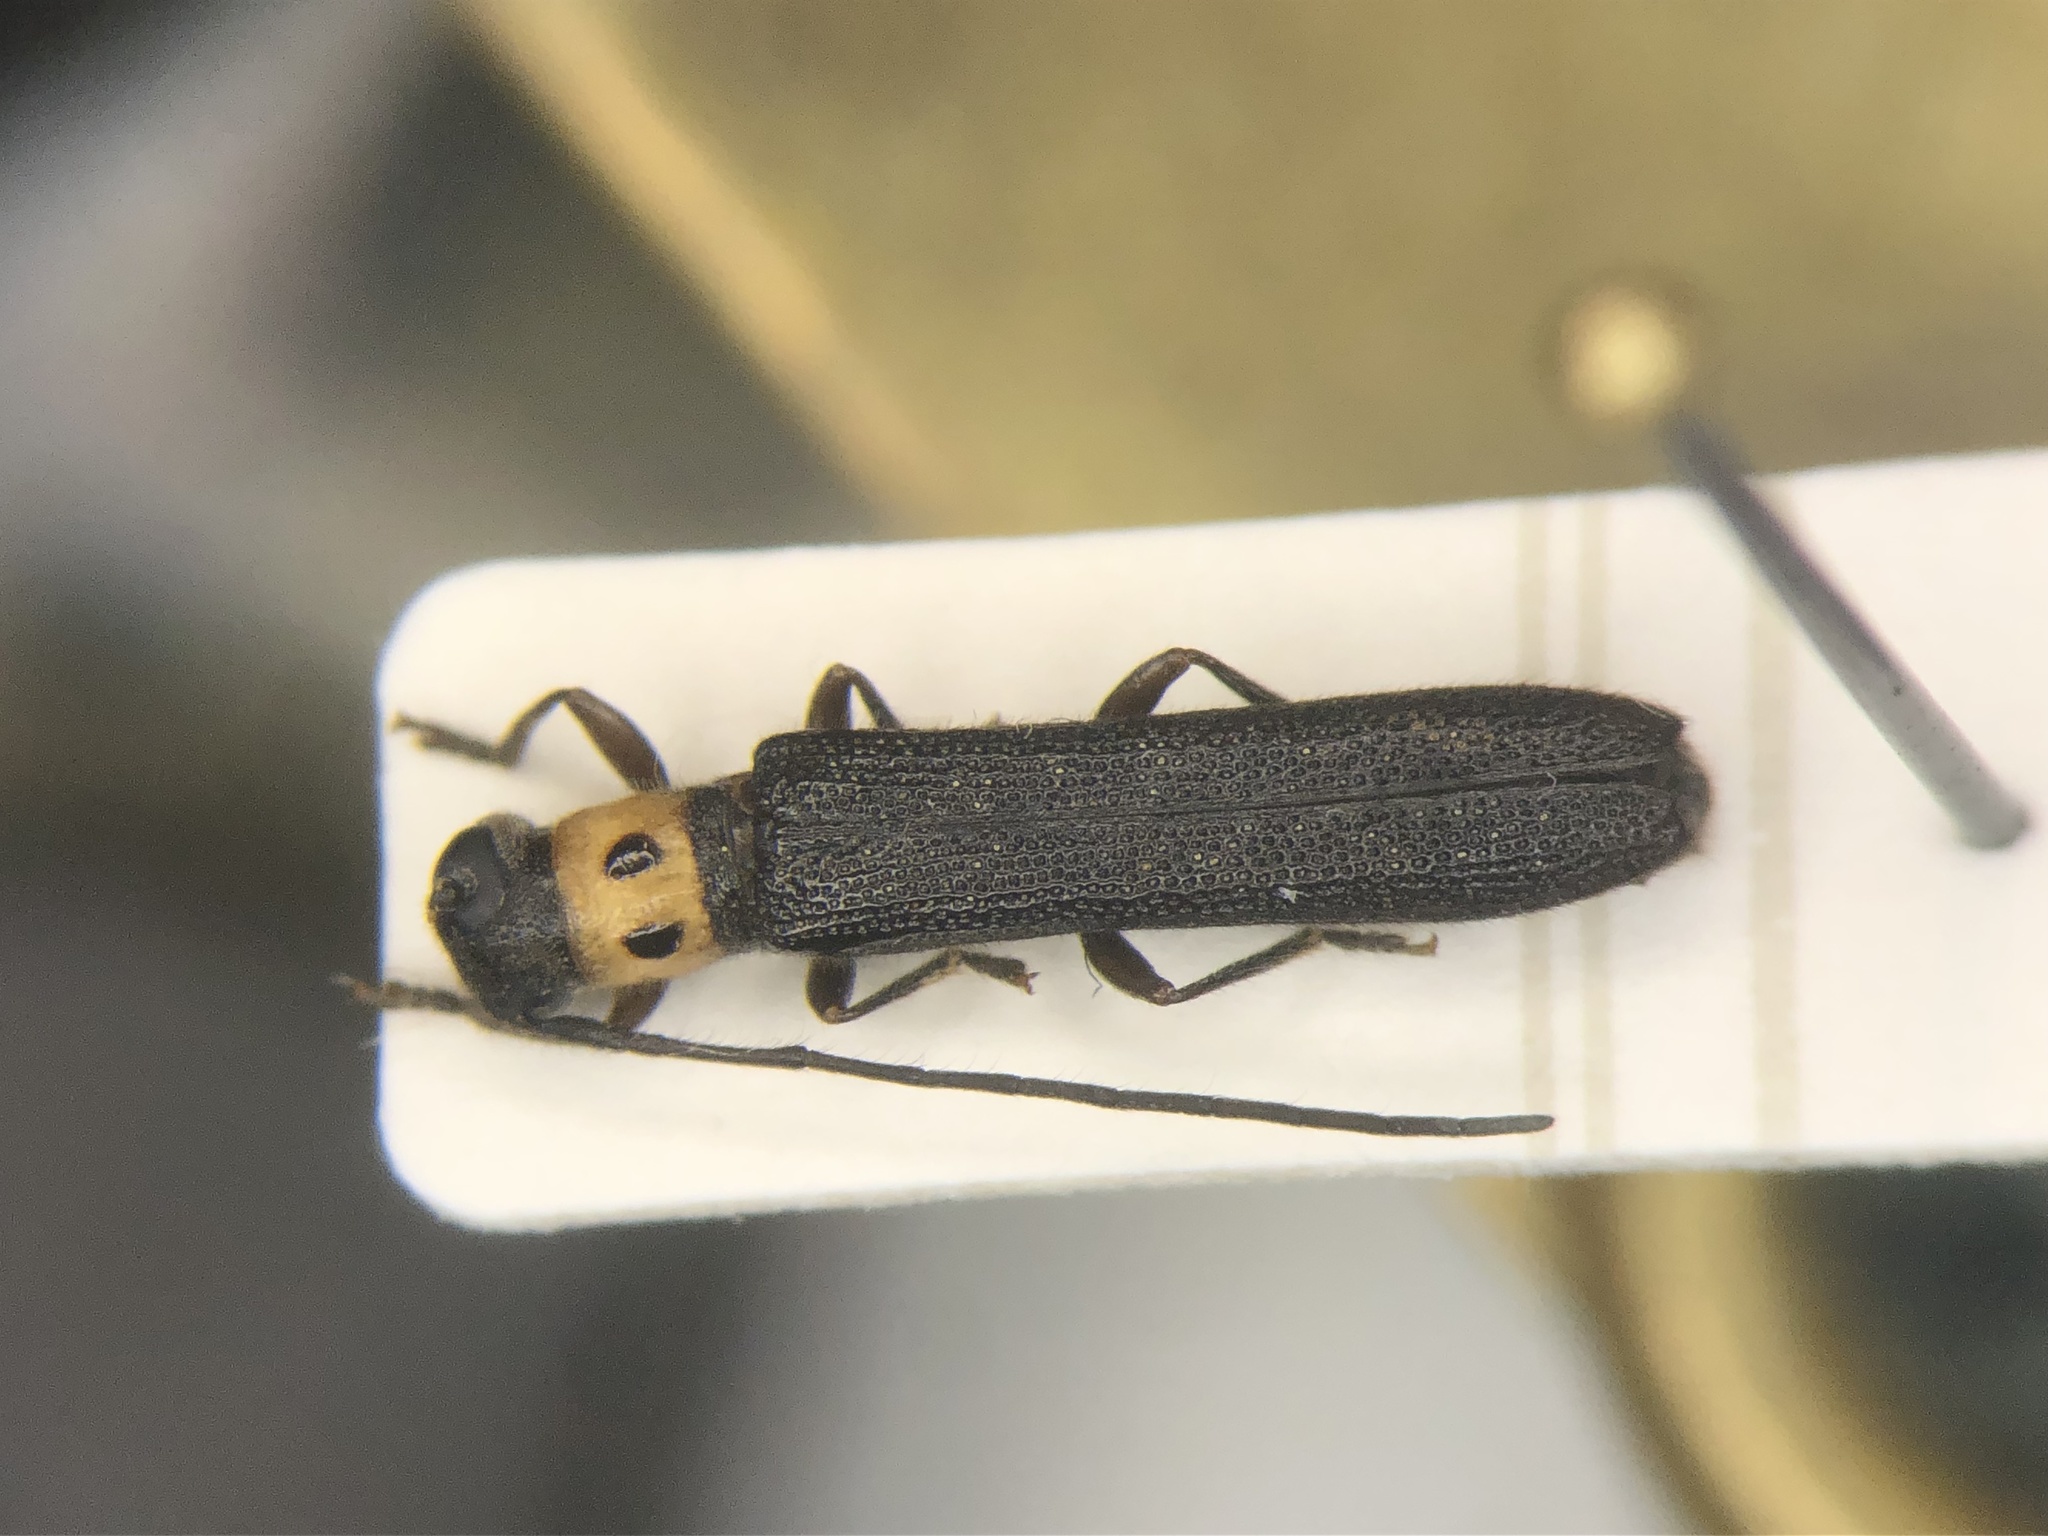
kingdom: Animalia
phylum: Arthropoda
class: Insecta
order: Coleoptera
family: Cerambycidae
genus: Oberea
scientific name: Oberea perspicillata
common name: Raspberry cane borer
